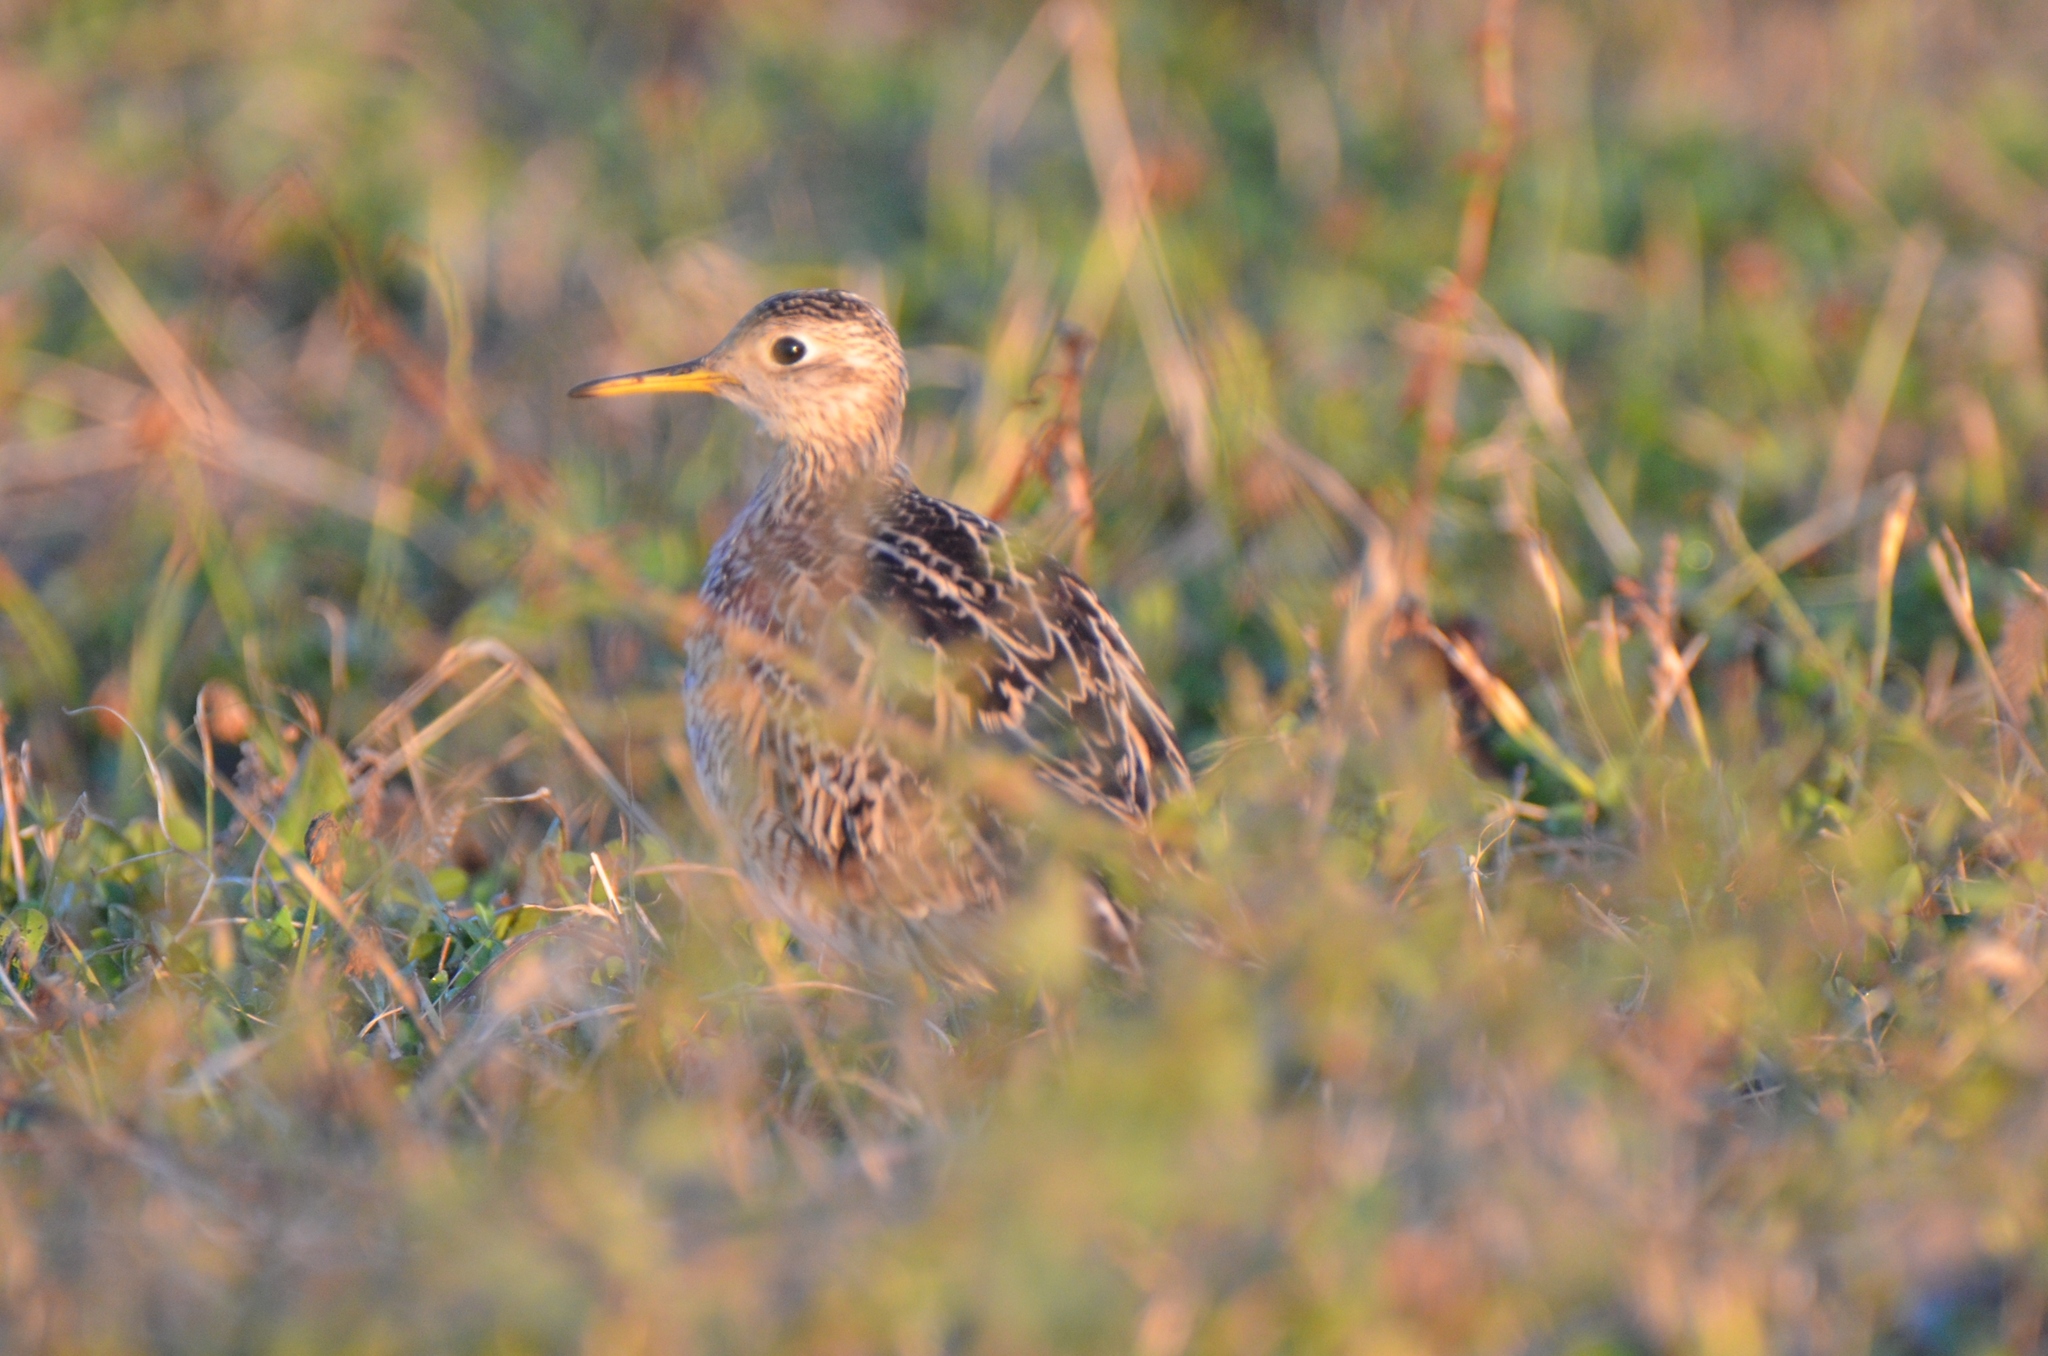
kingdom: Animalia
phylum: Chordata
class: Aves
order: Charadriiformes
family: Scolopacidae
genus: Bartramia
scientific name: Bartramia longicauda
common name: Upland sandpiper
